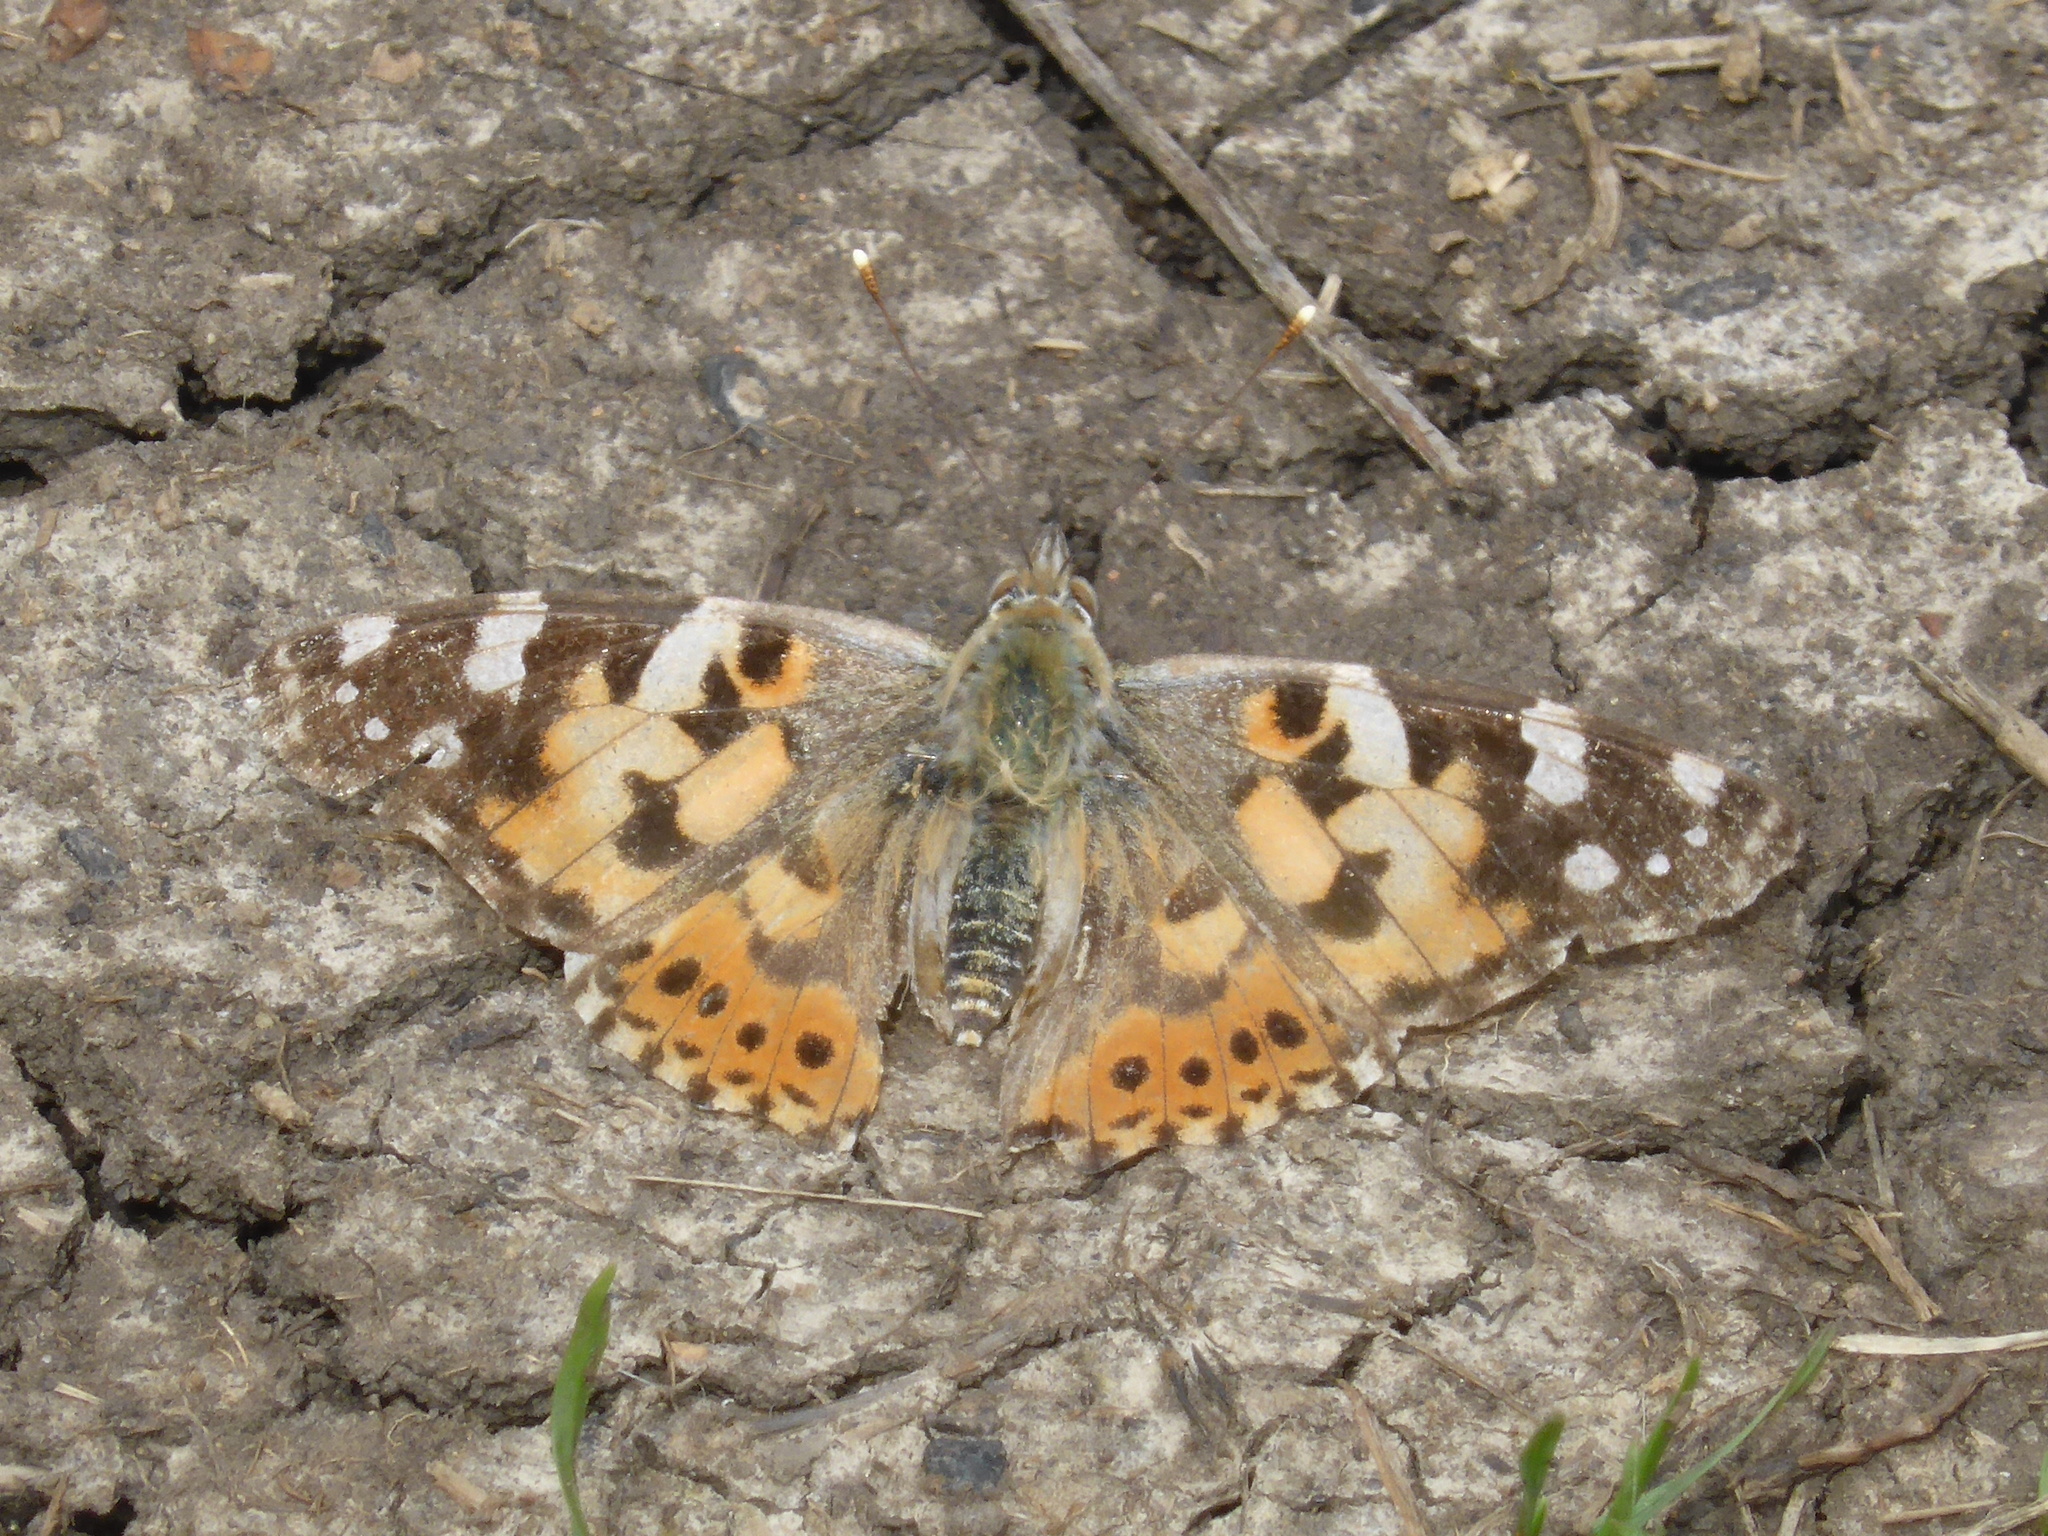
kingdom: Animalia
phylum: Arthropoda
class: Insecta
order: Lepidoptera
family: Nymphalidae
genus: Vanessa
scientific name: Vanessa cardui
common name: Painted lady
